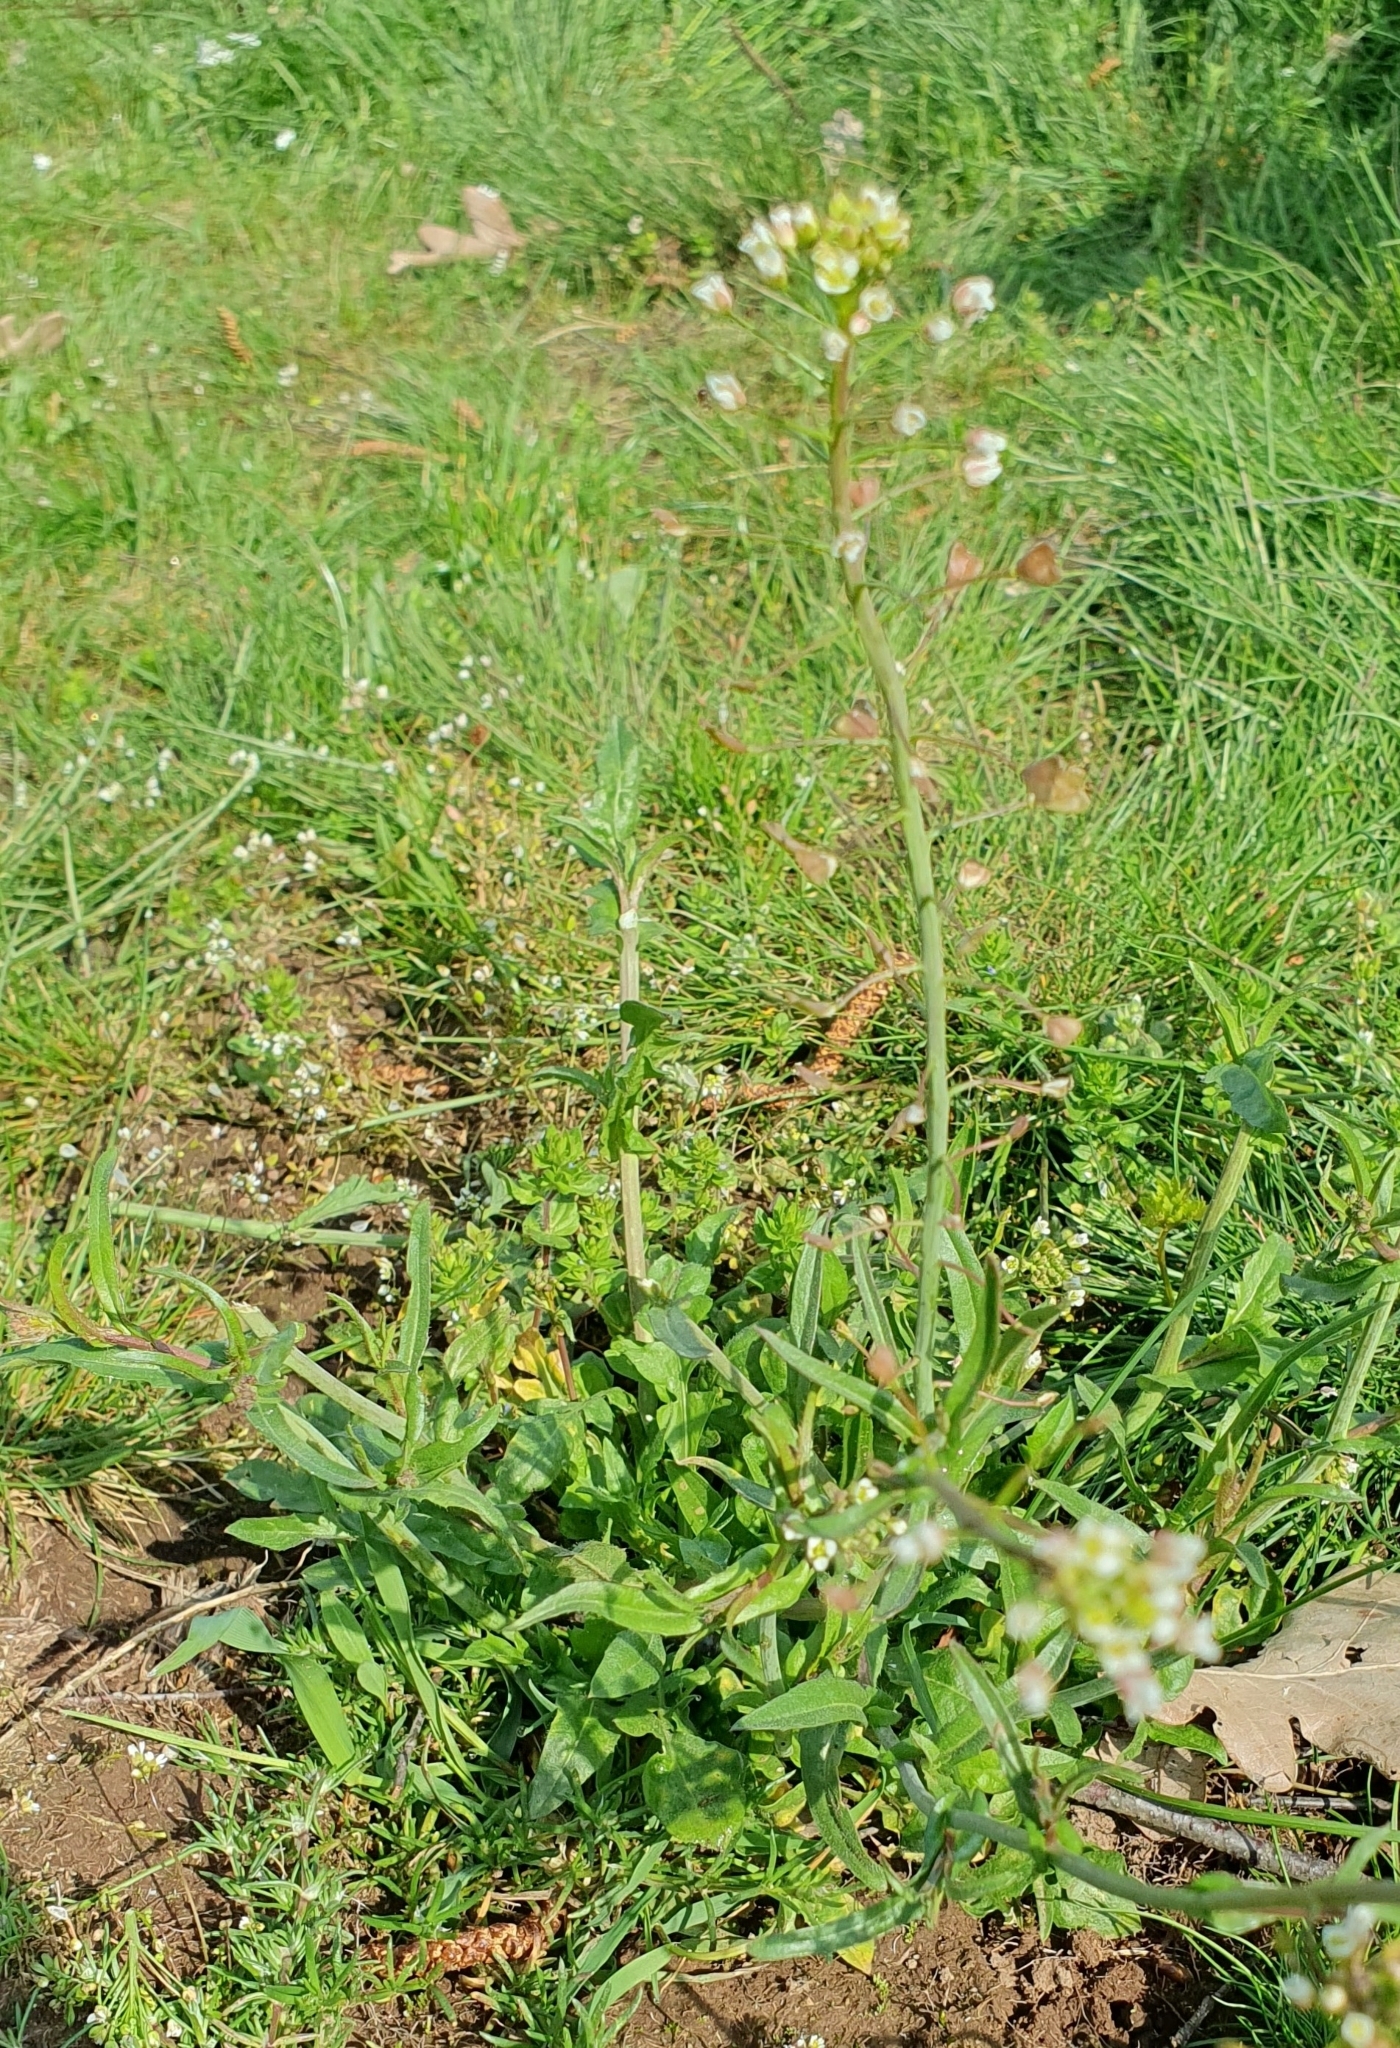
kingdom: Plantae
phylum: Tracheophyta
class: Magnoliopsida
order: Brassicales
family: Brassicaceae
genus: Capsella
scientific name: Capsella bursa-pastoris
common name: Shepherd's purse
